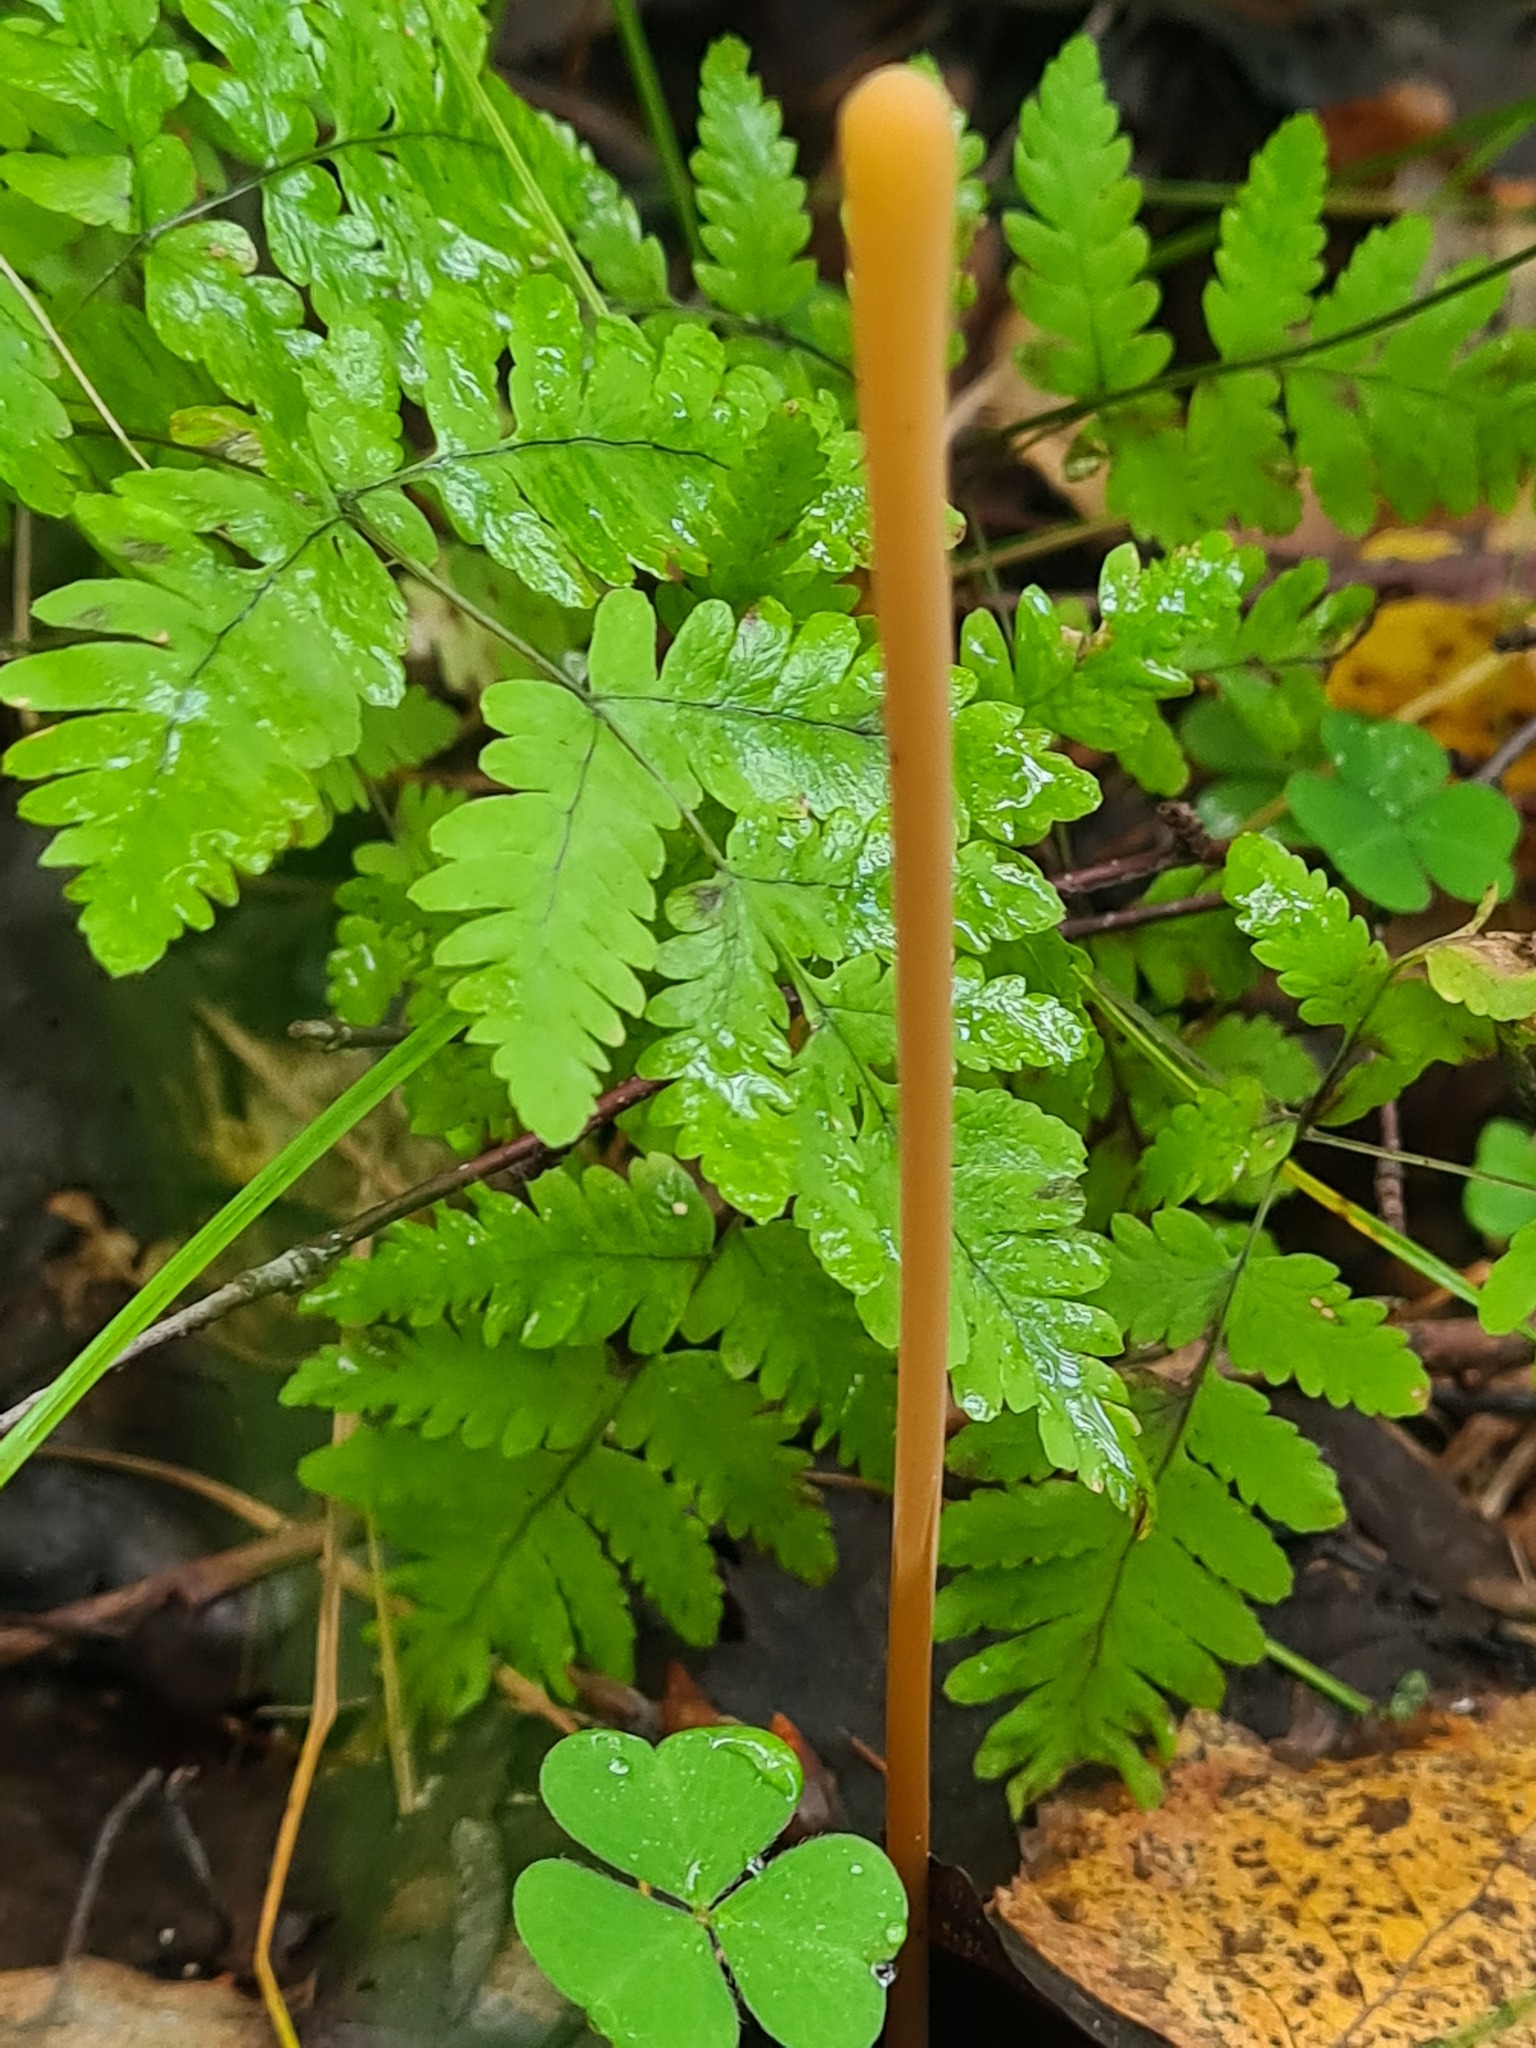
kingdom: Fungi
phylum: Basidiomycota
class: Agaricomycetes
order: Agaricales
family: Typhulaceae
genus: Typhula
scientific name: Typhula fistulosa
